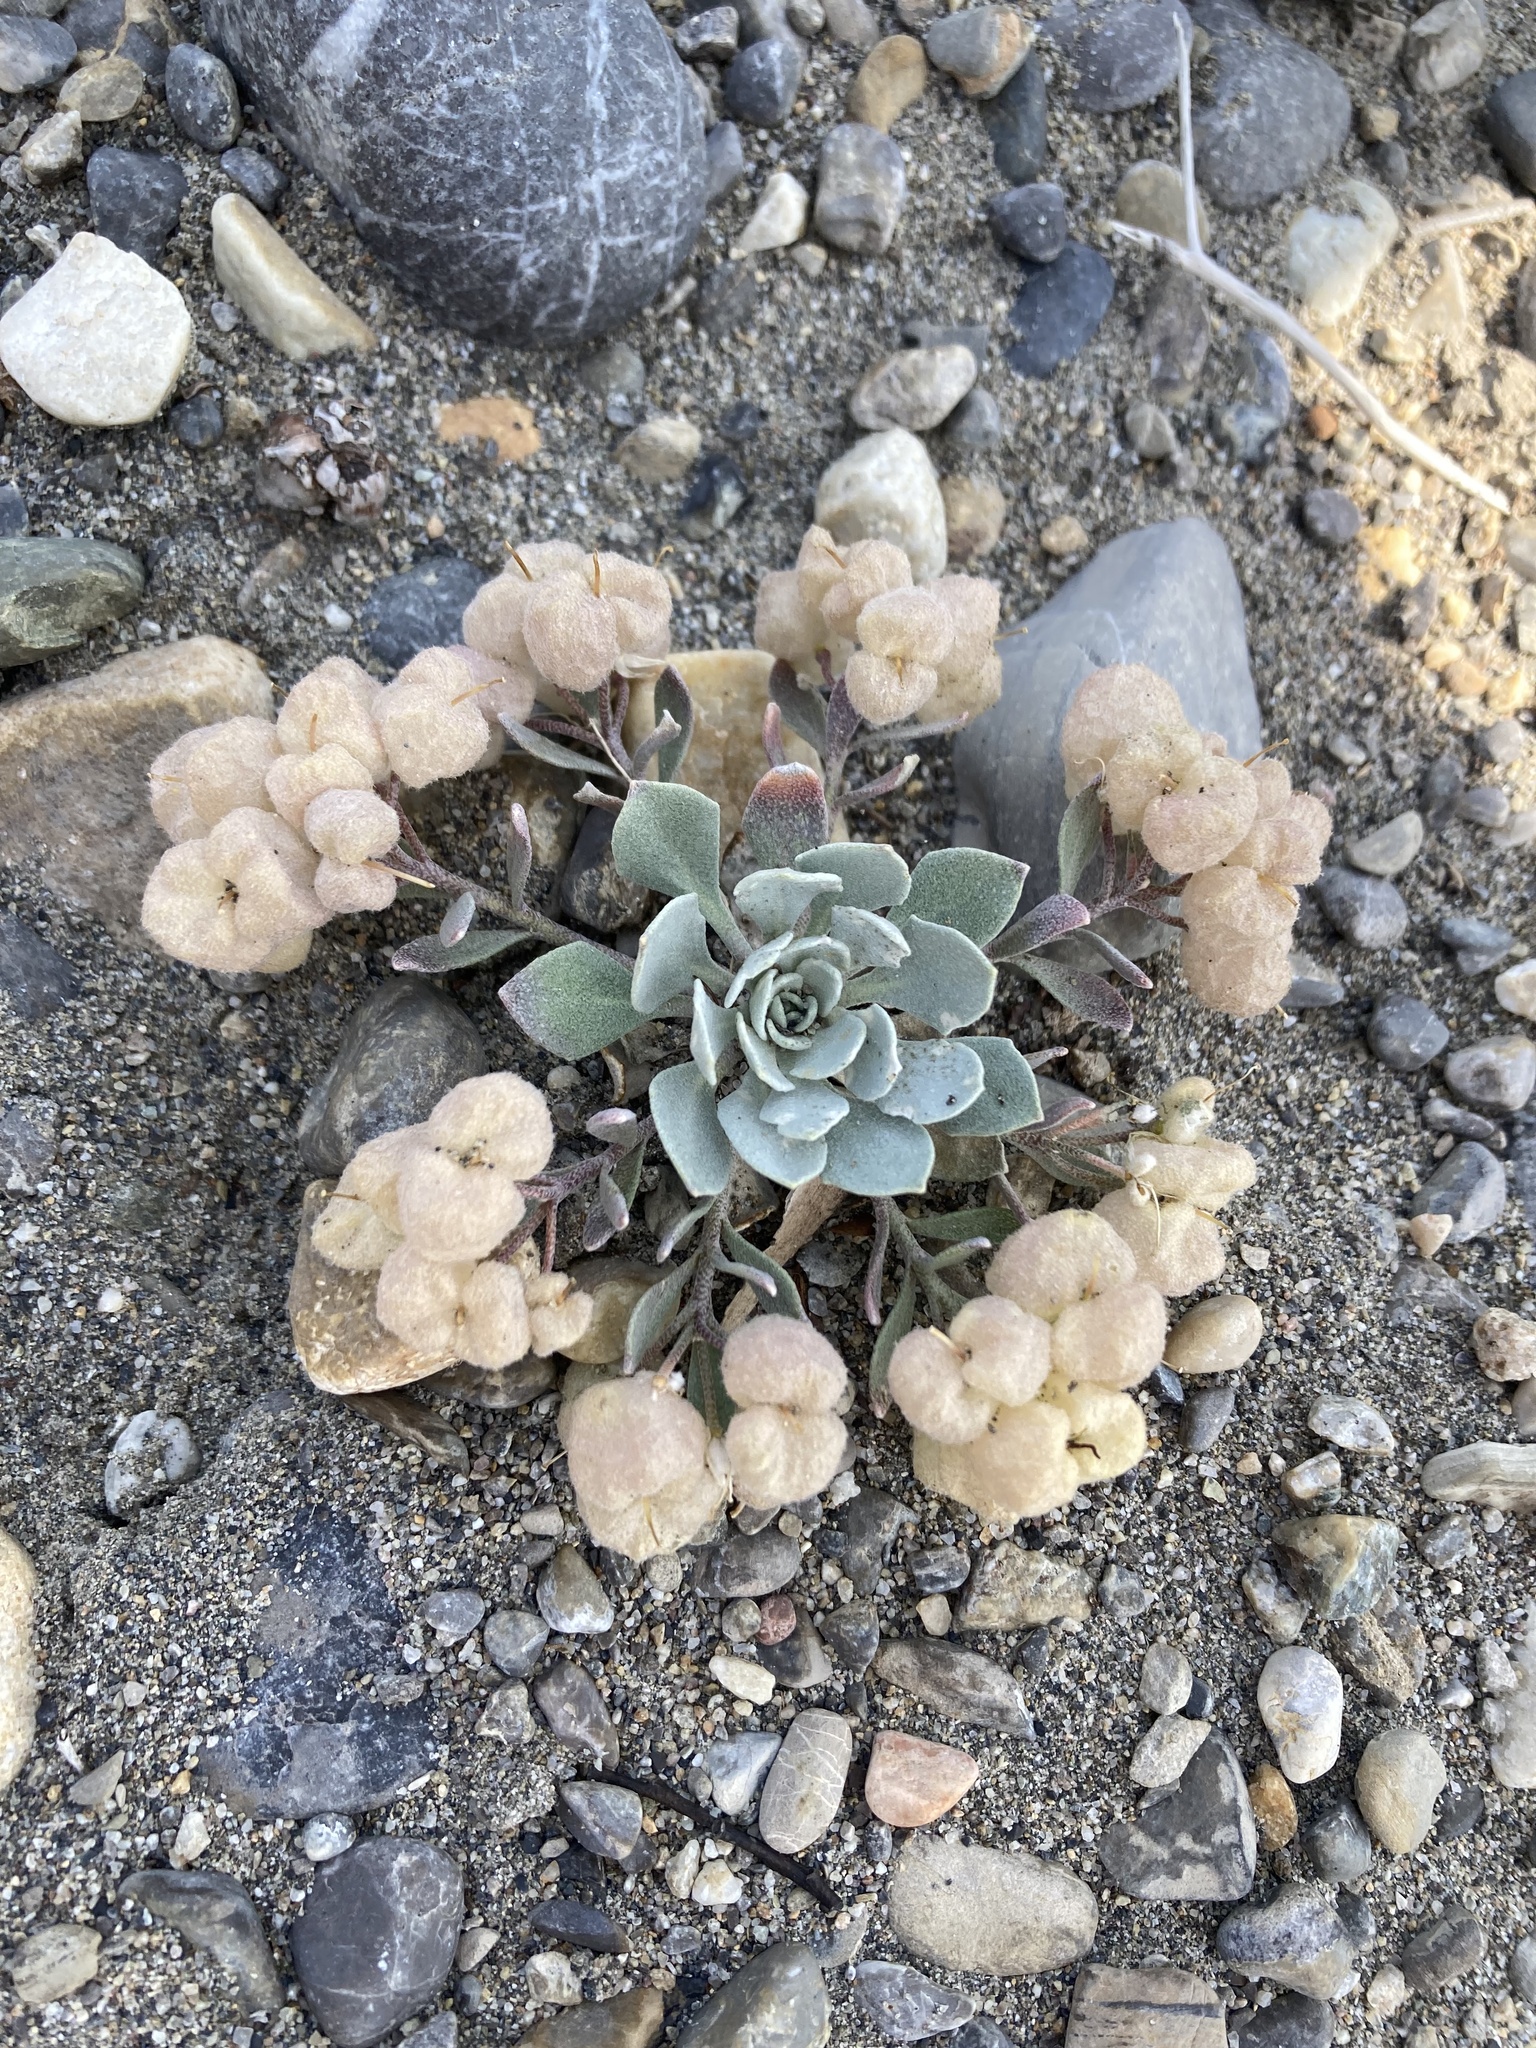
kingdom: Plantae
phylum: Tracheophyta
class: Magnoliopsida
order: Brassicales
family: Brassicaceae
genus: Physaria
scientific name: Physaria didymocarpa
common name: Common twinpod
